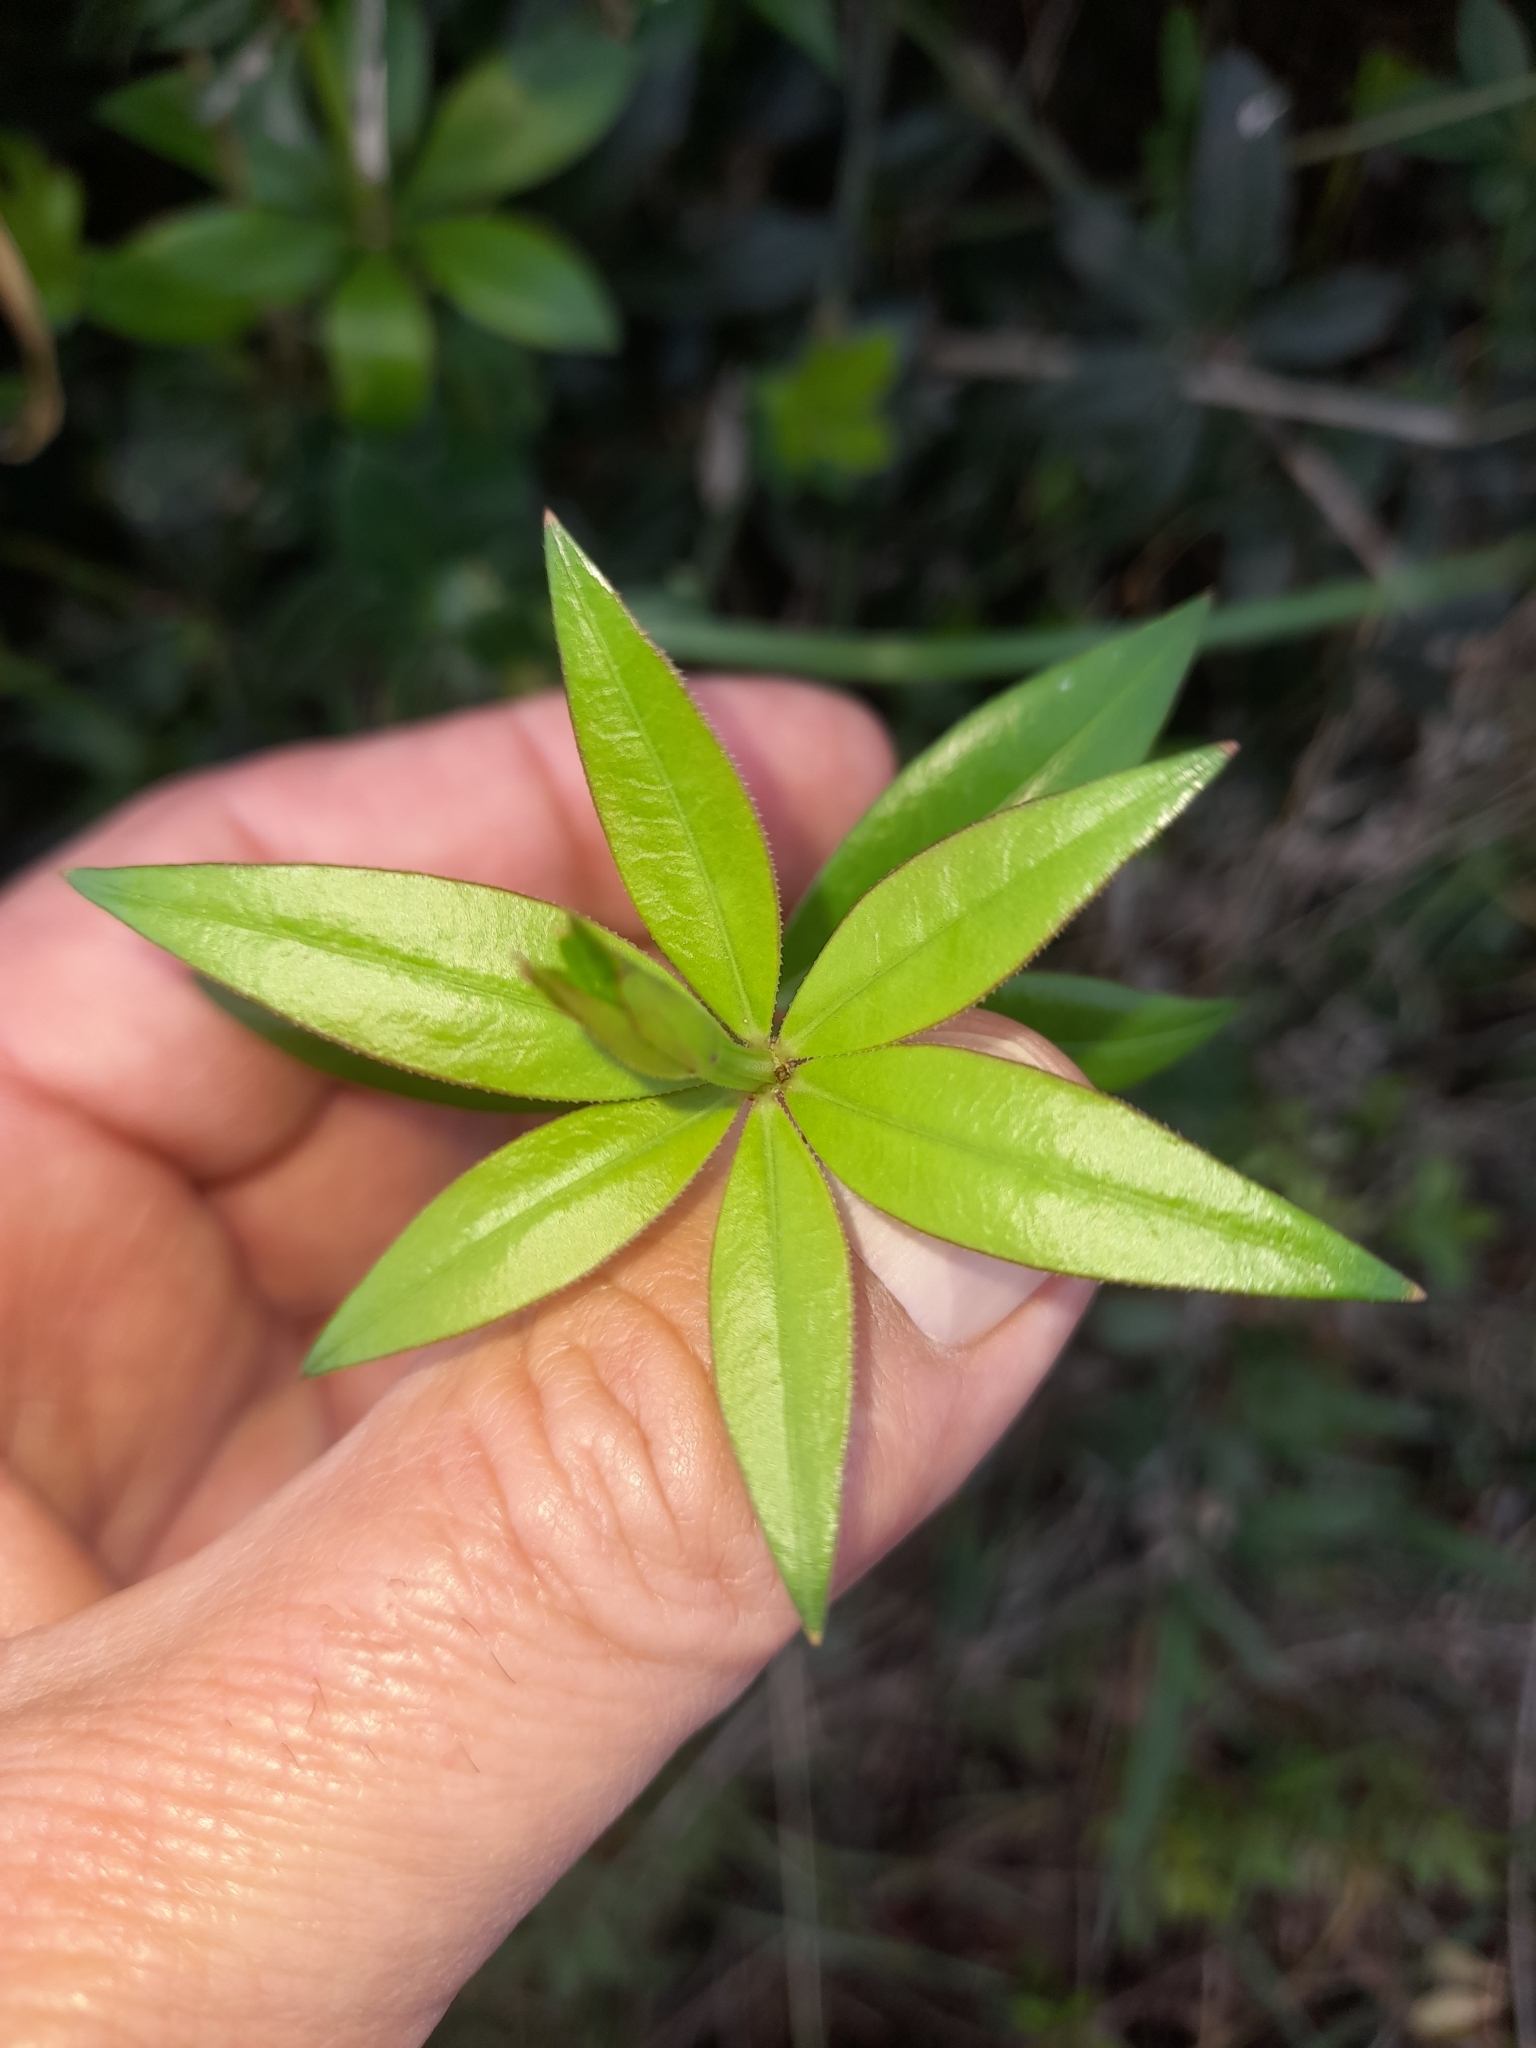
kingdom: Plantae
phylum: Tracheophyta
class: Magnoliopsida
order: Gentianales
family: Rubiaceae
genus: Rubia
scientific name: Rubia peregrina
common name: Wild madder
